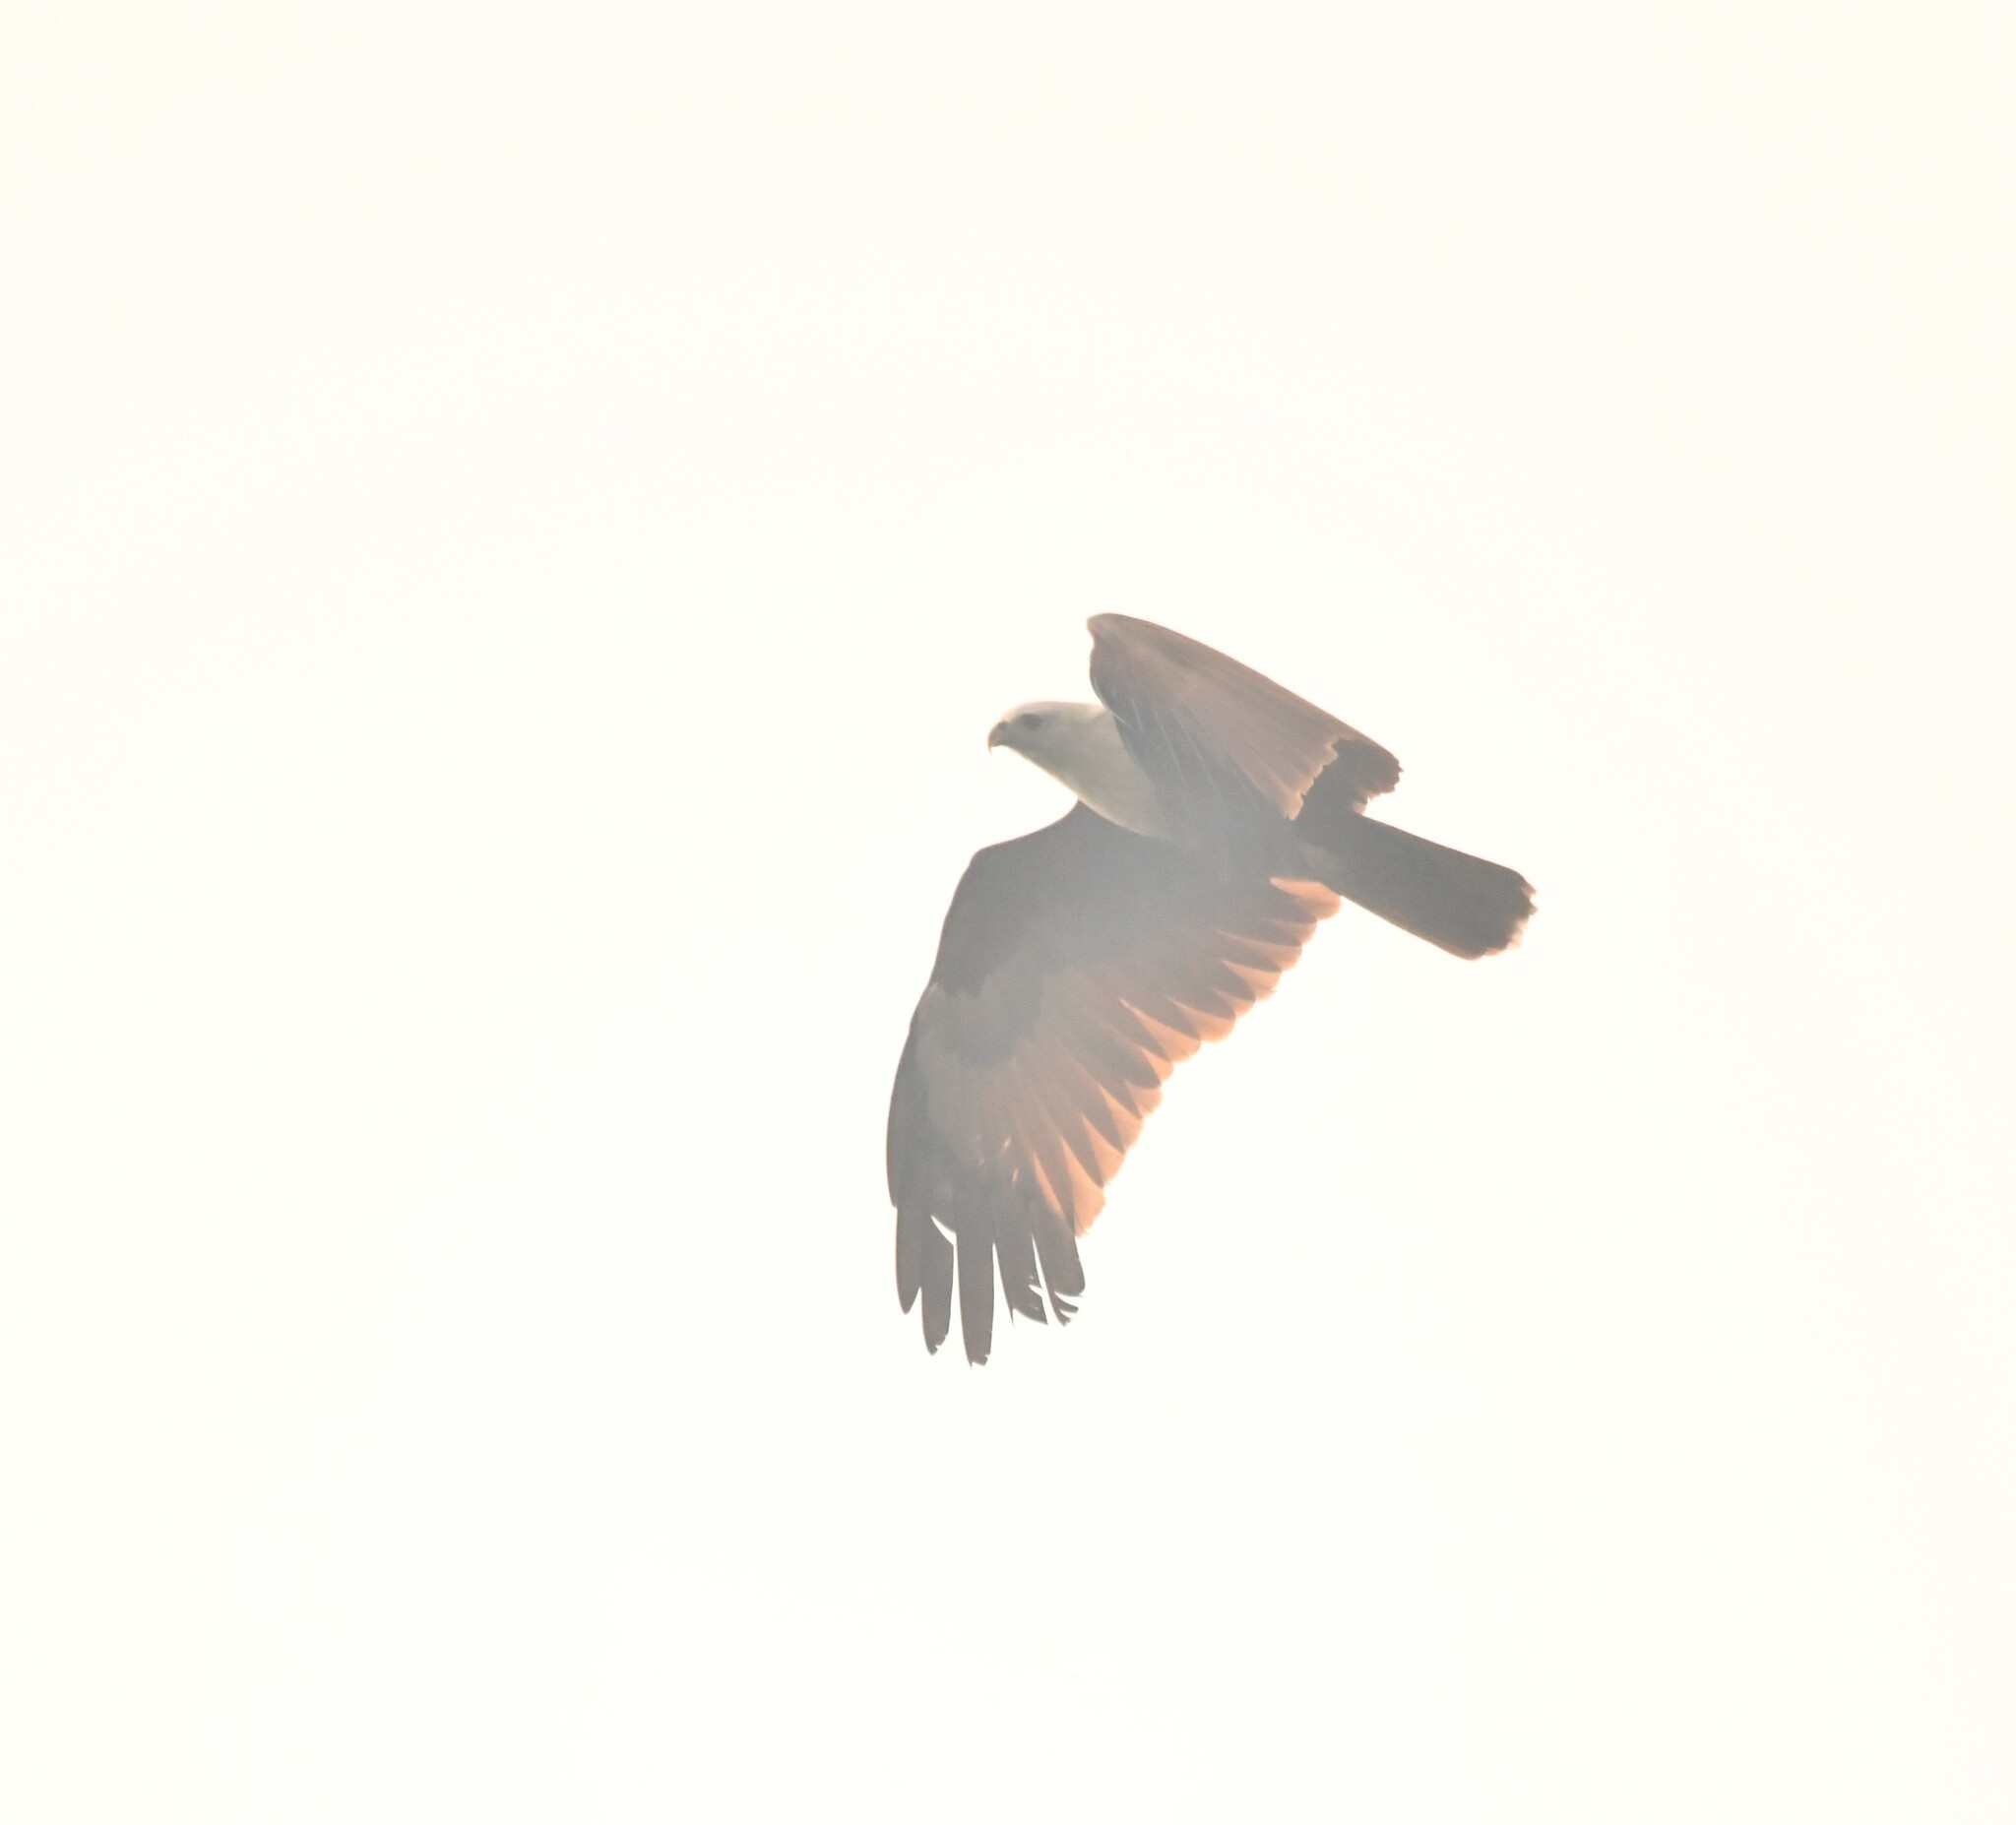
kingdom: Animalia
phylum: Chordata
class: Aves
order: Accipitriformes
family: Accipitridae
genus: Haliastur
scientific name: Haliastur indus
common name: Brahminy kite
